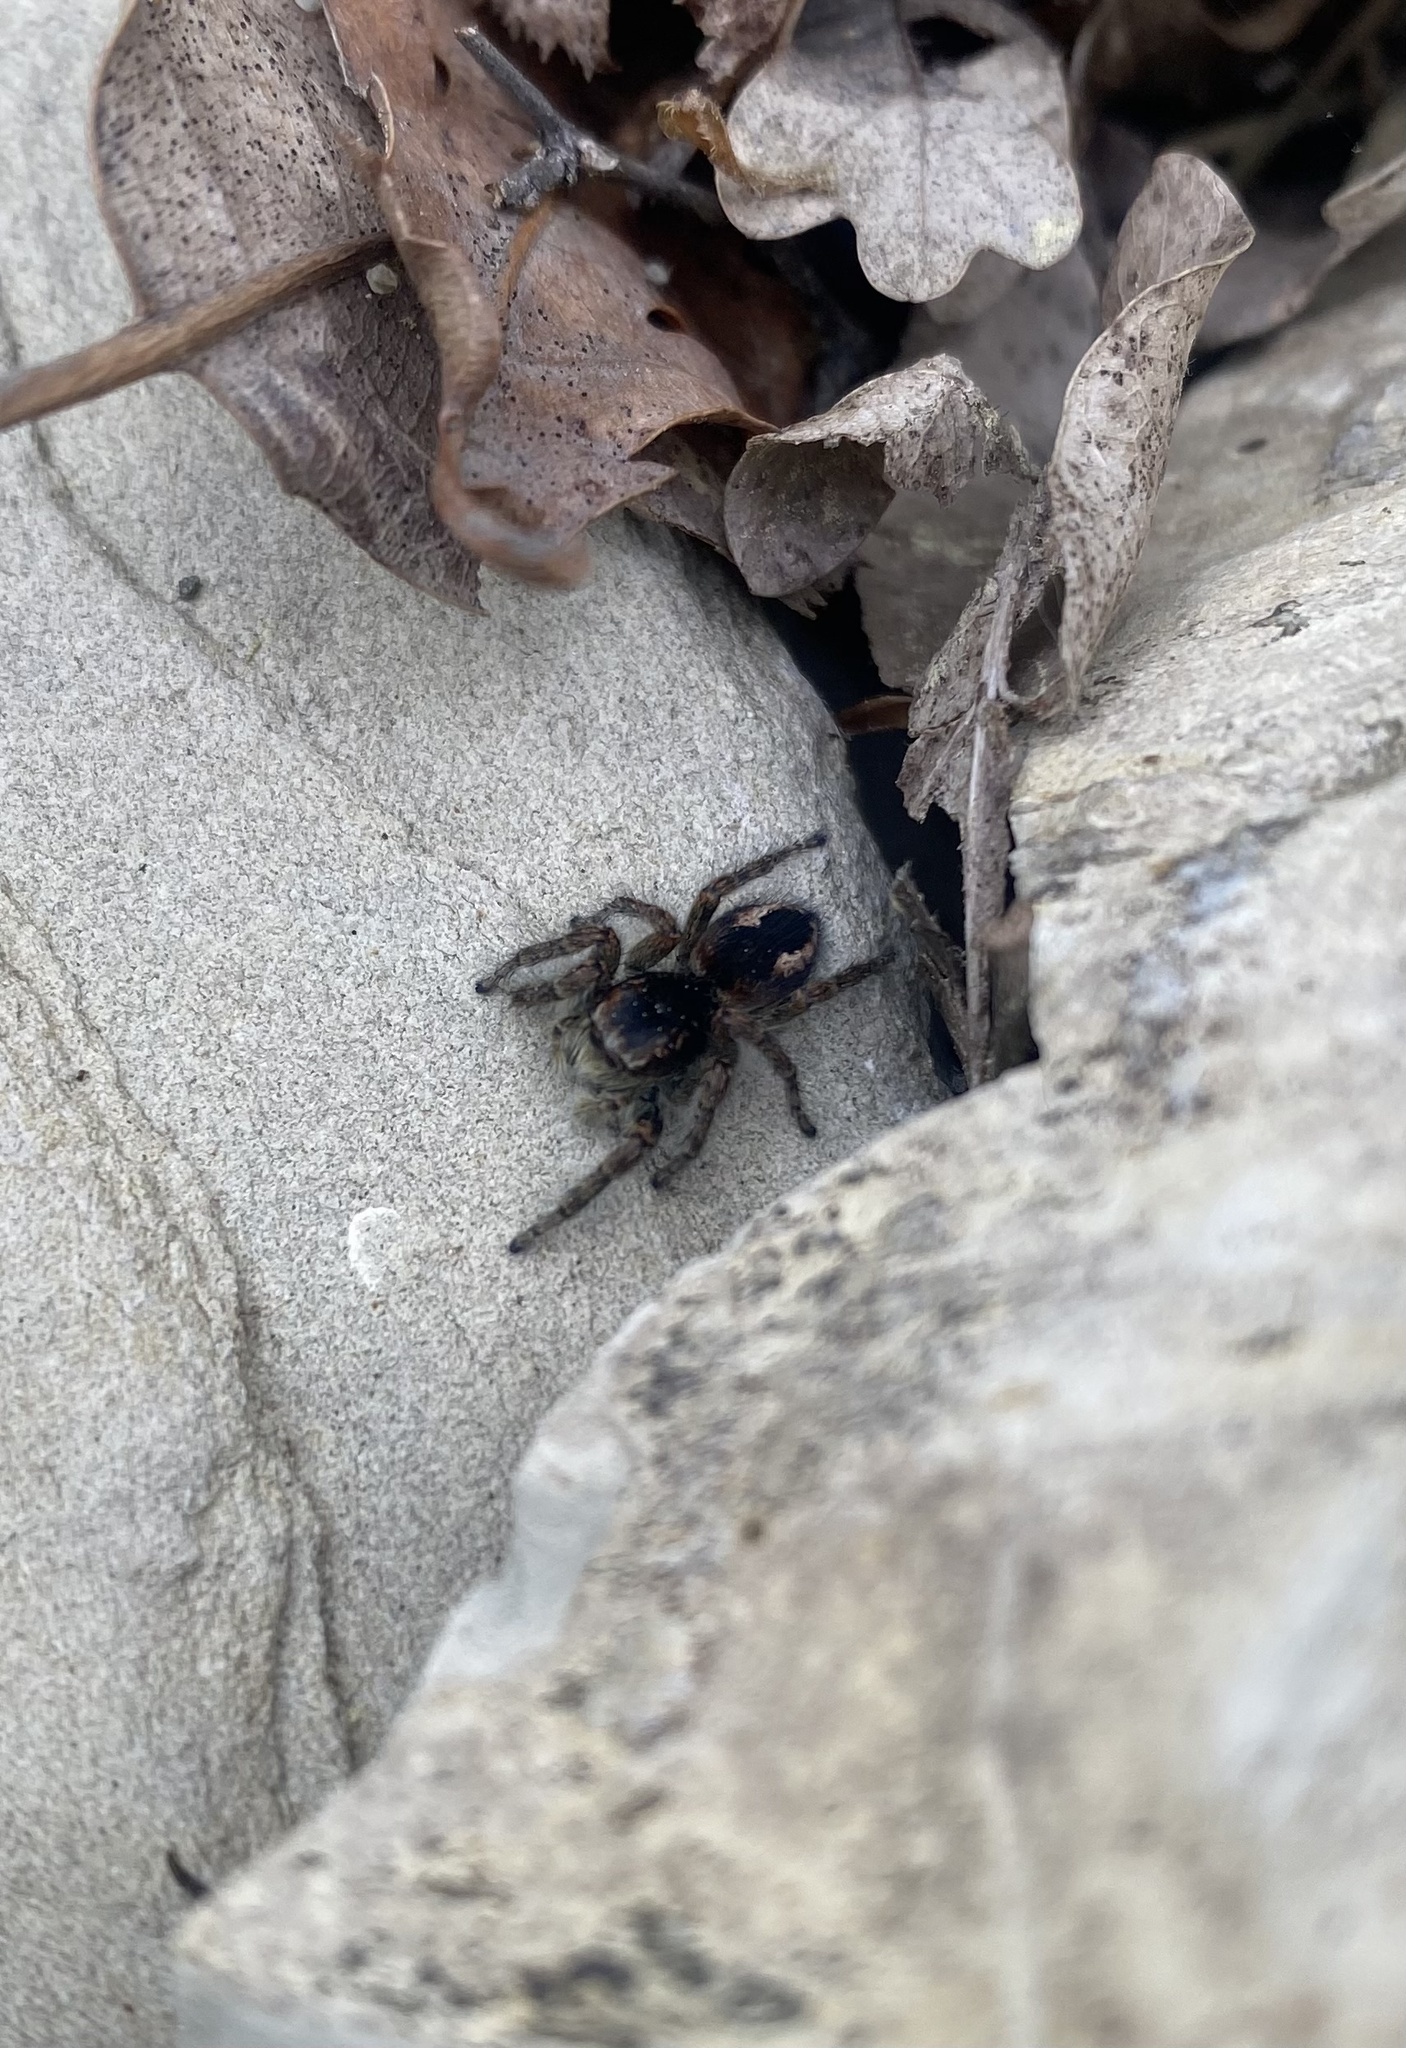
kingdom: Animalia
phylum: Arthropoda
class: Arachnida
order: Araneae
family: Salticidae
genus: Philaeus
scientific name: Philaeus chrysops
